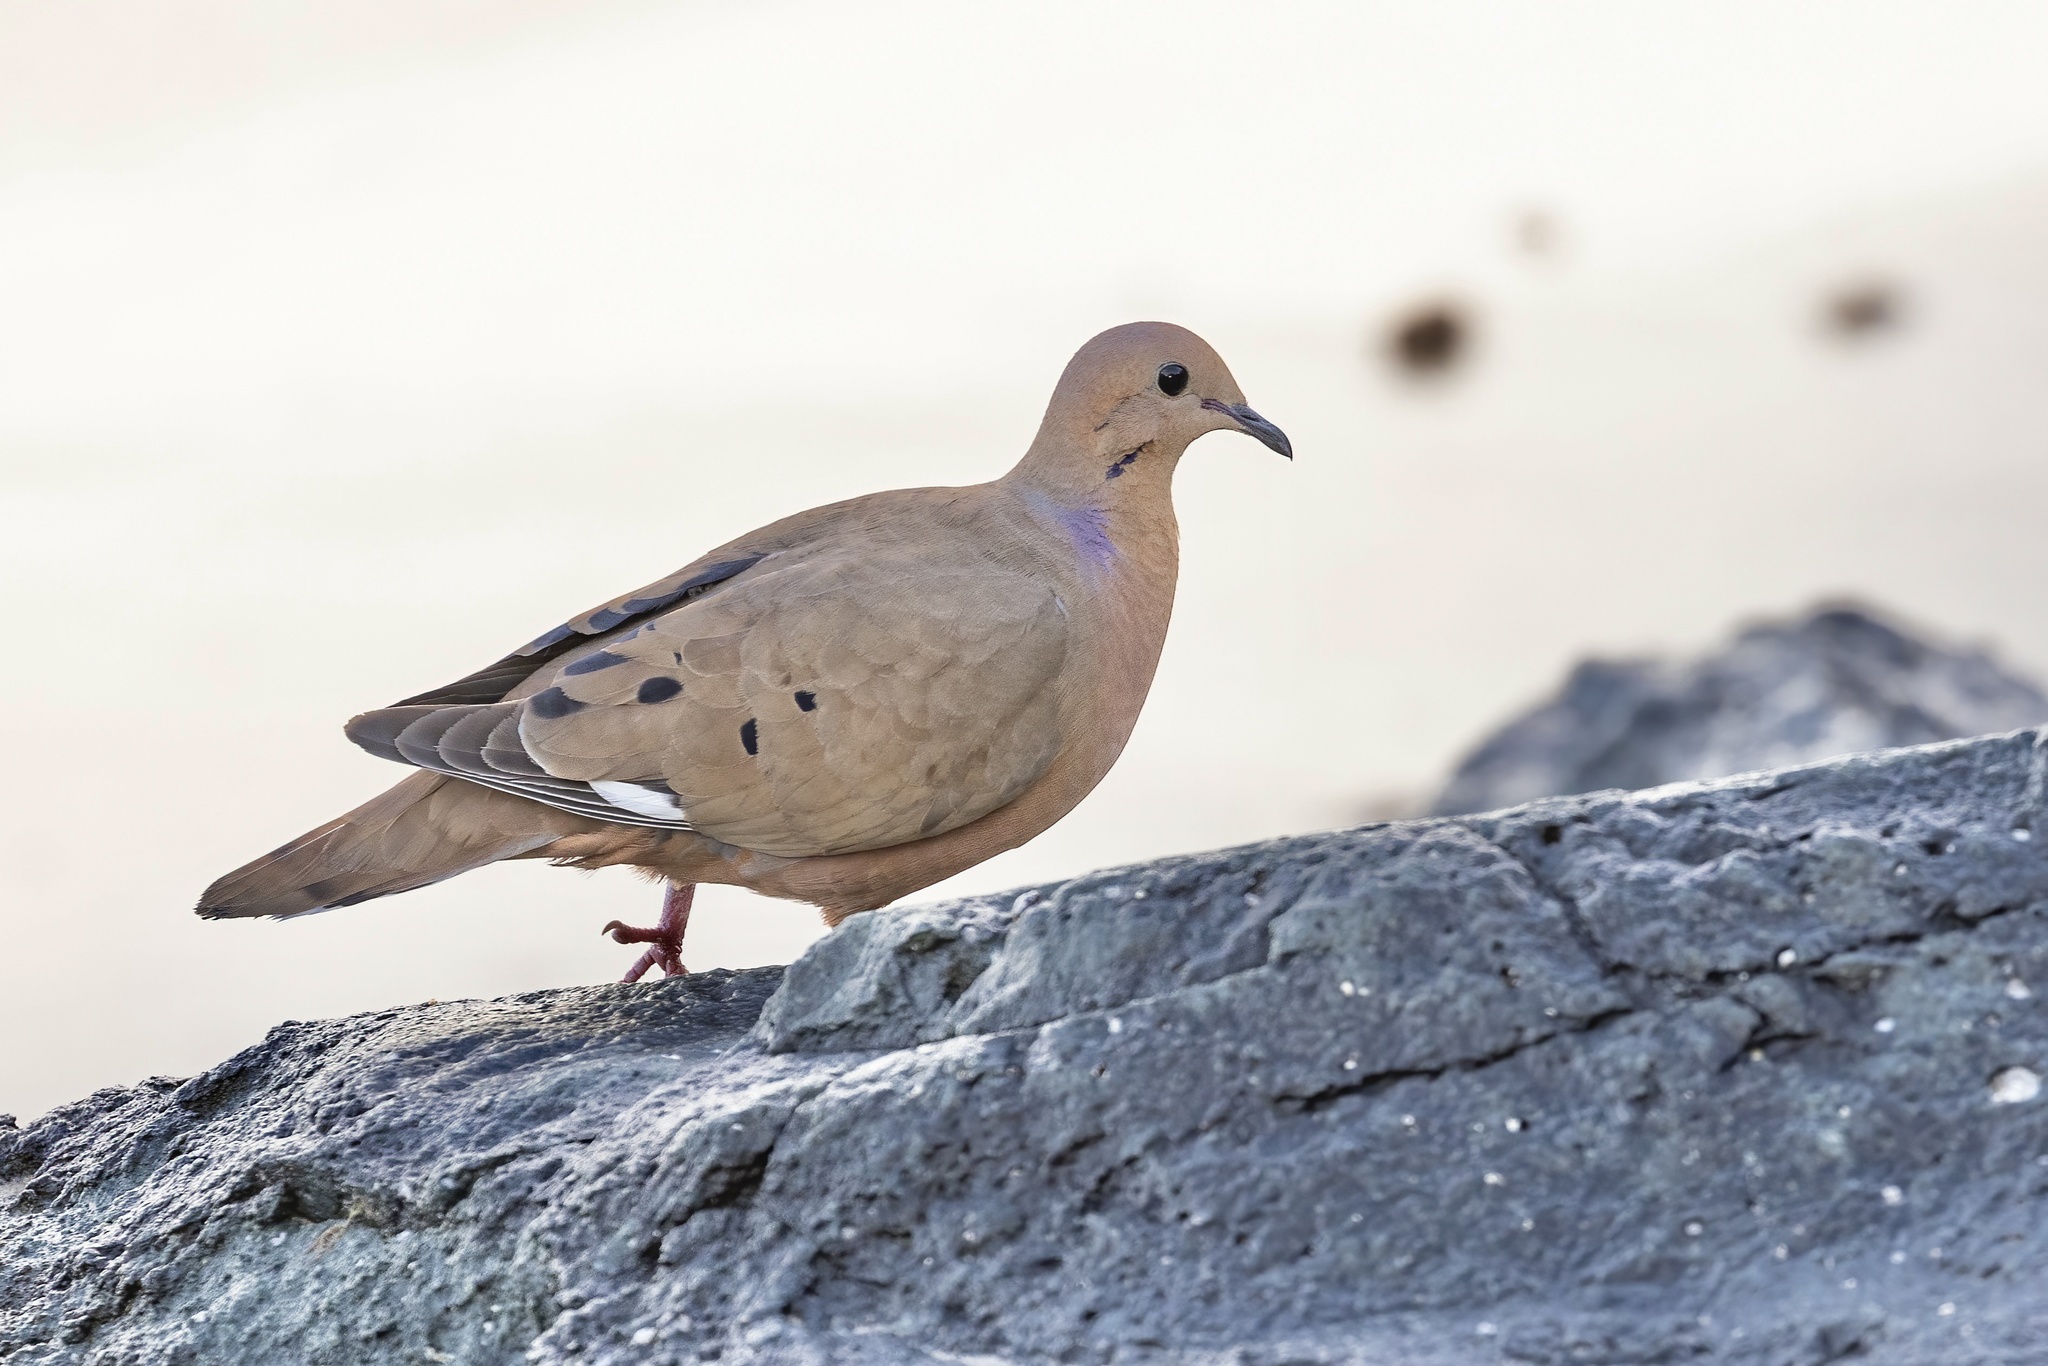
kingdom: Animalia
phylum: Chordata
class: Aves
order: Columbiformes
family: Columbidae
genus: Zenaida
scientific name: Zenaida aurita
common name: Zenaida dove
